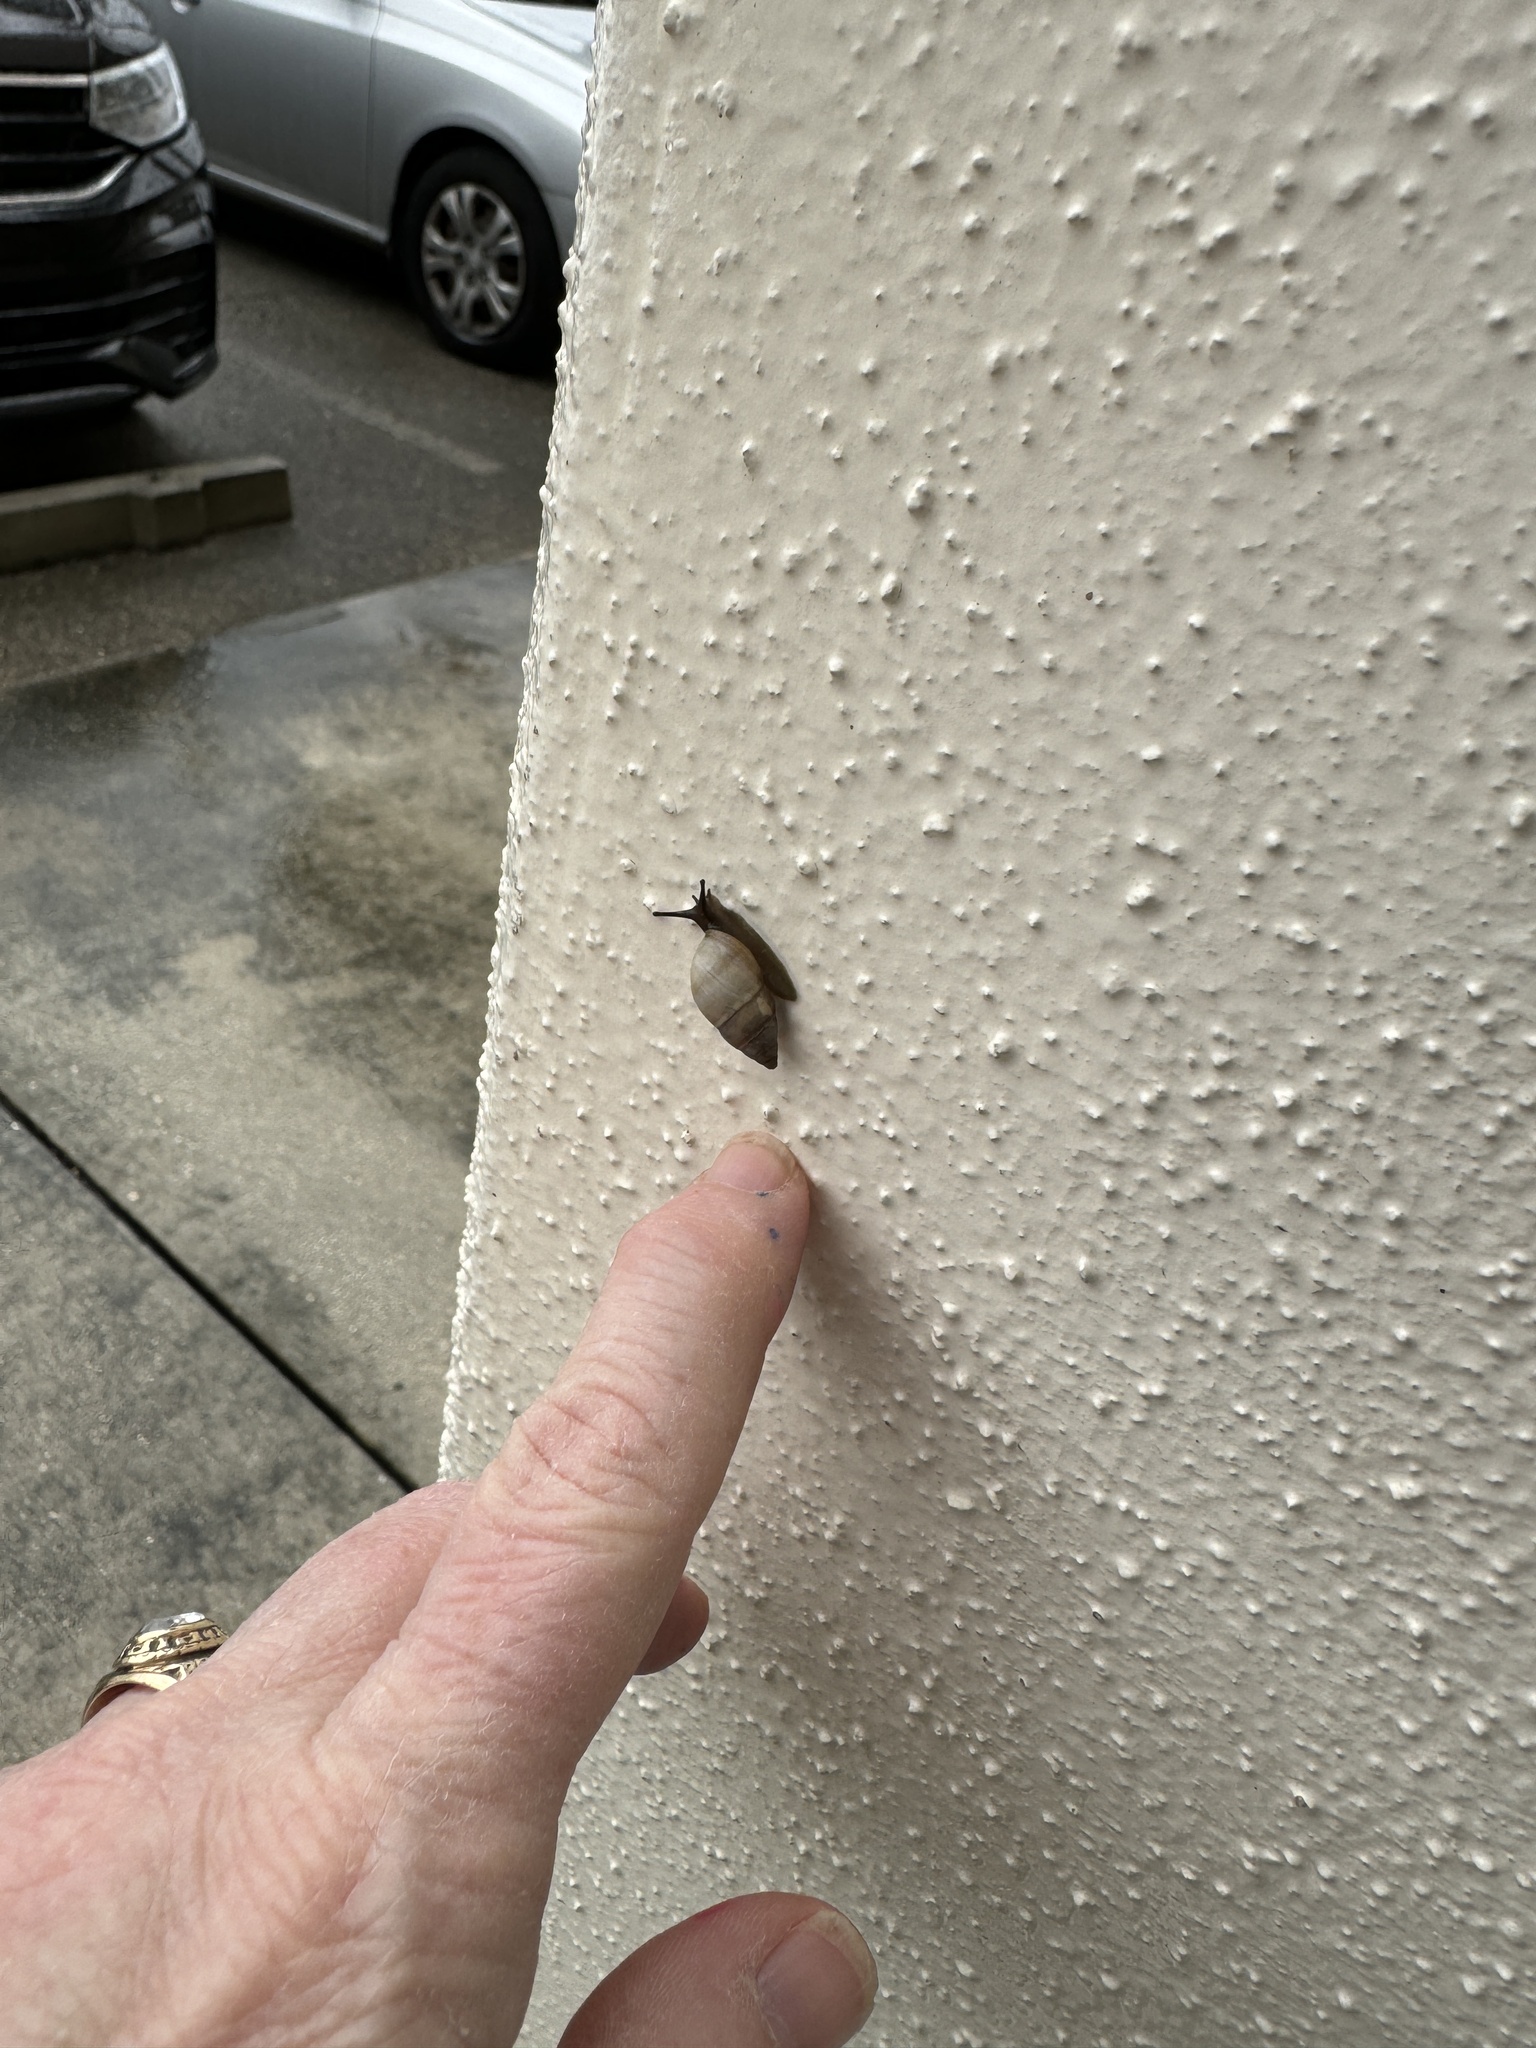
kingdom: Animalia
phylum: Mollusca
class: Gastropoda
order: Stylommatophora
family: Bulimulidae
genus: Bulimulus
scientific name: Bulimulus guadalupensis
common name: West indian bulimulus
